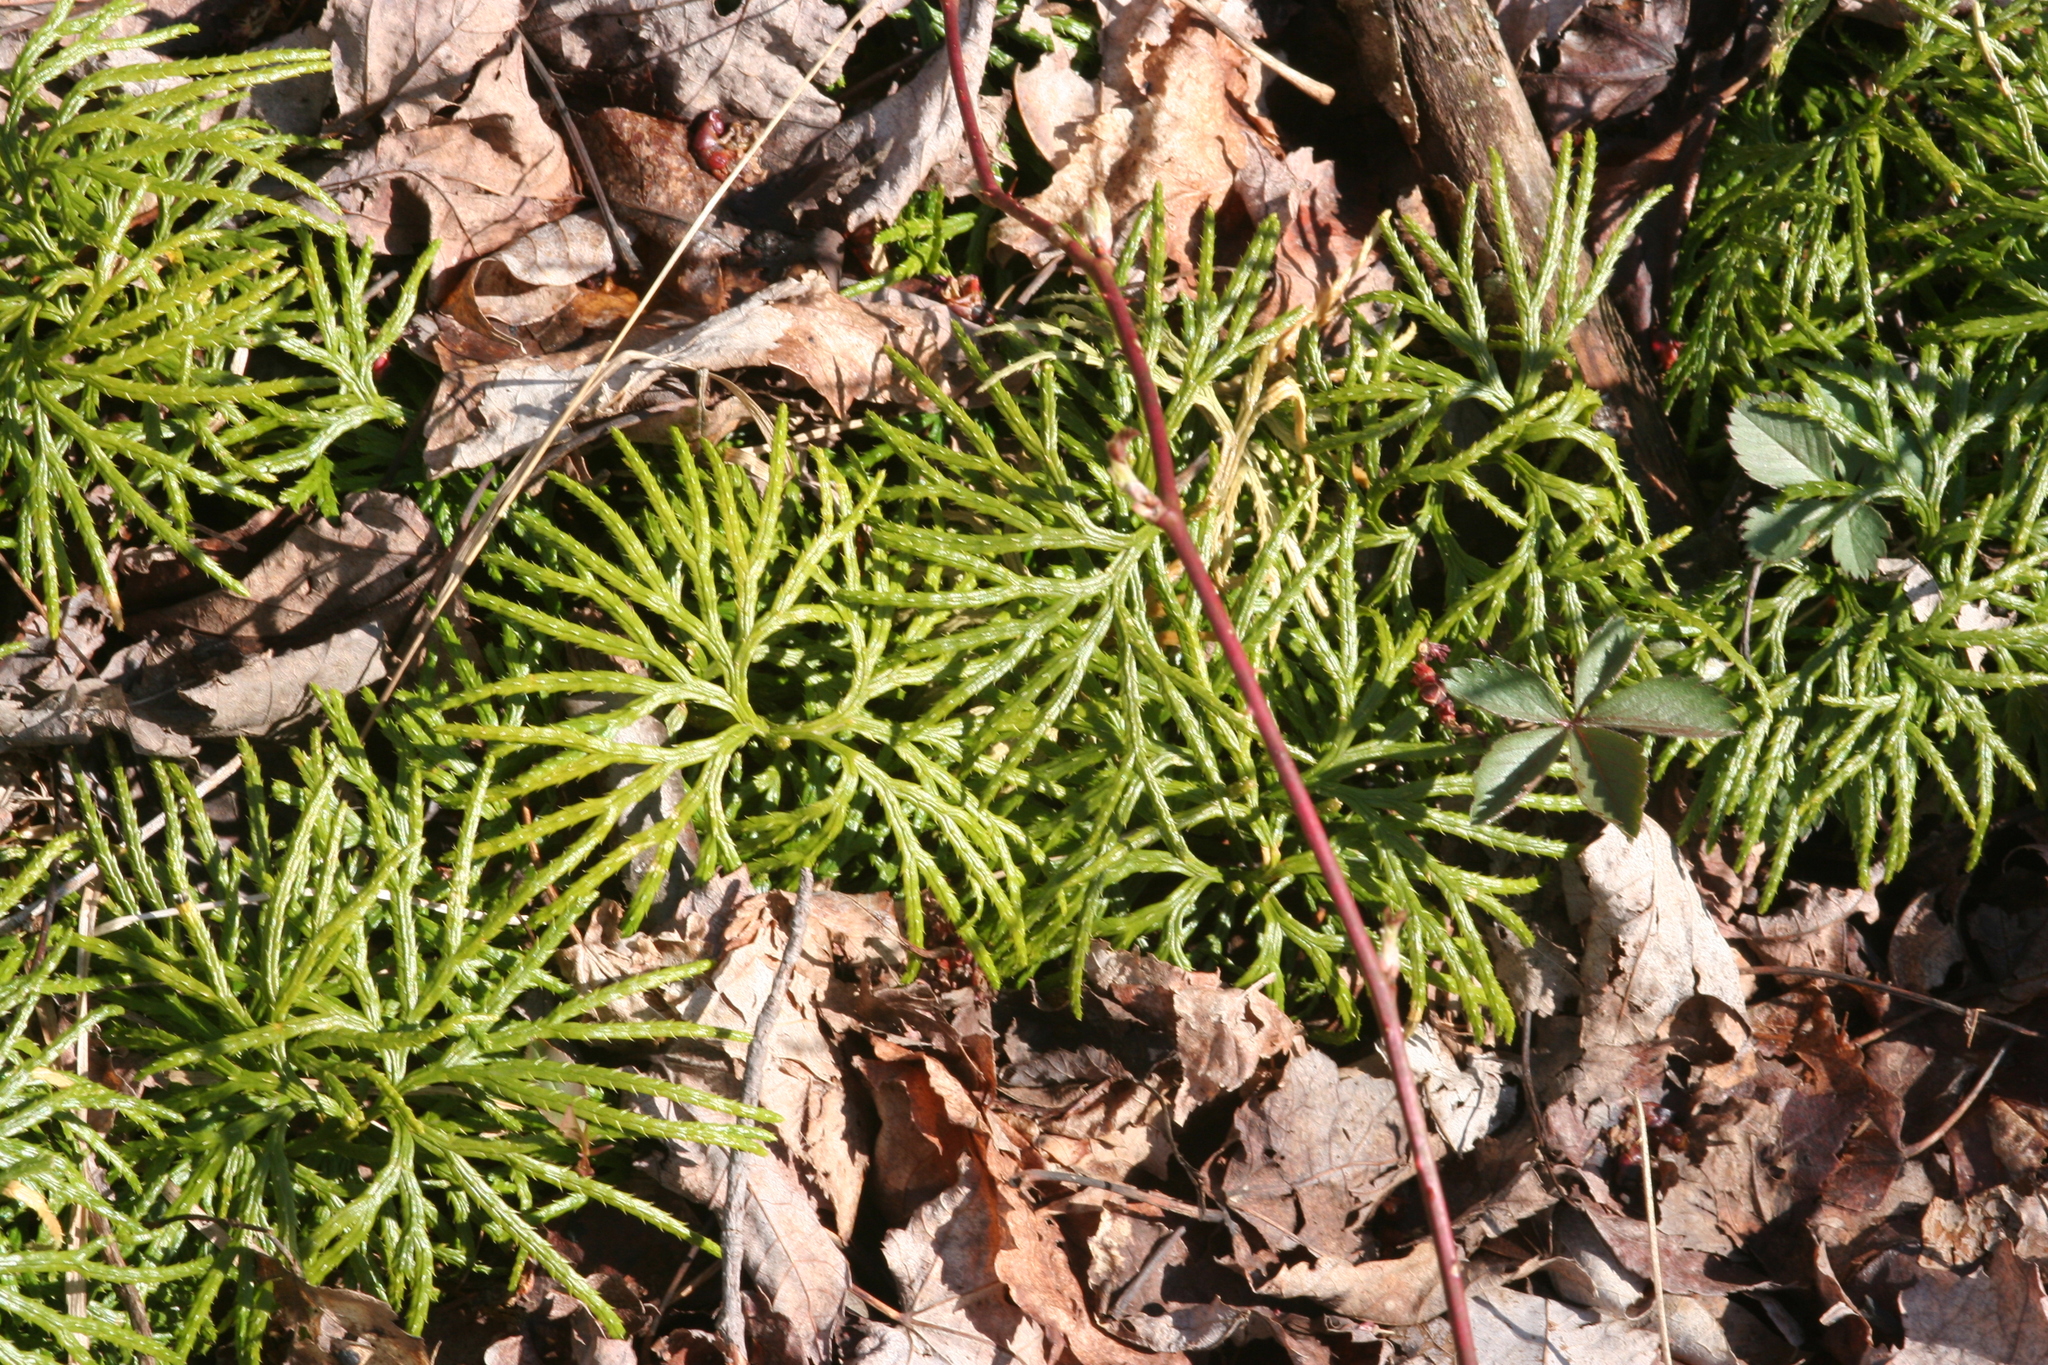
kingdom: Plantae
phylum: Tracheophyta
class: Lycopodiopsida
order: Lycopodiales
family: Lycopodiaceae
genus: Diphasiastrum
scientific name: Diphasiastrum digitatum
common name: Southern running-pine
